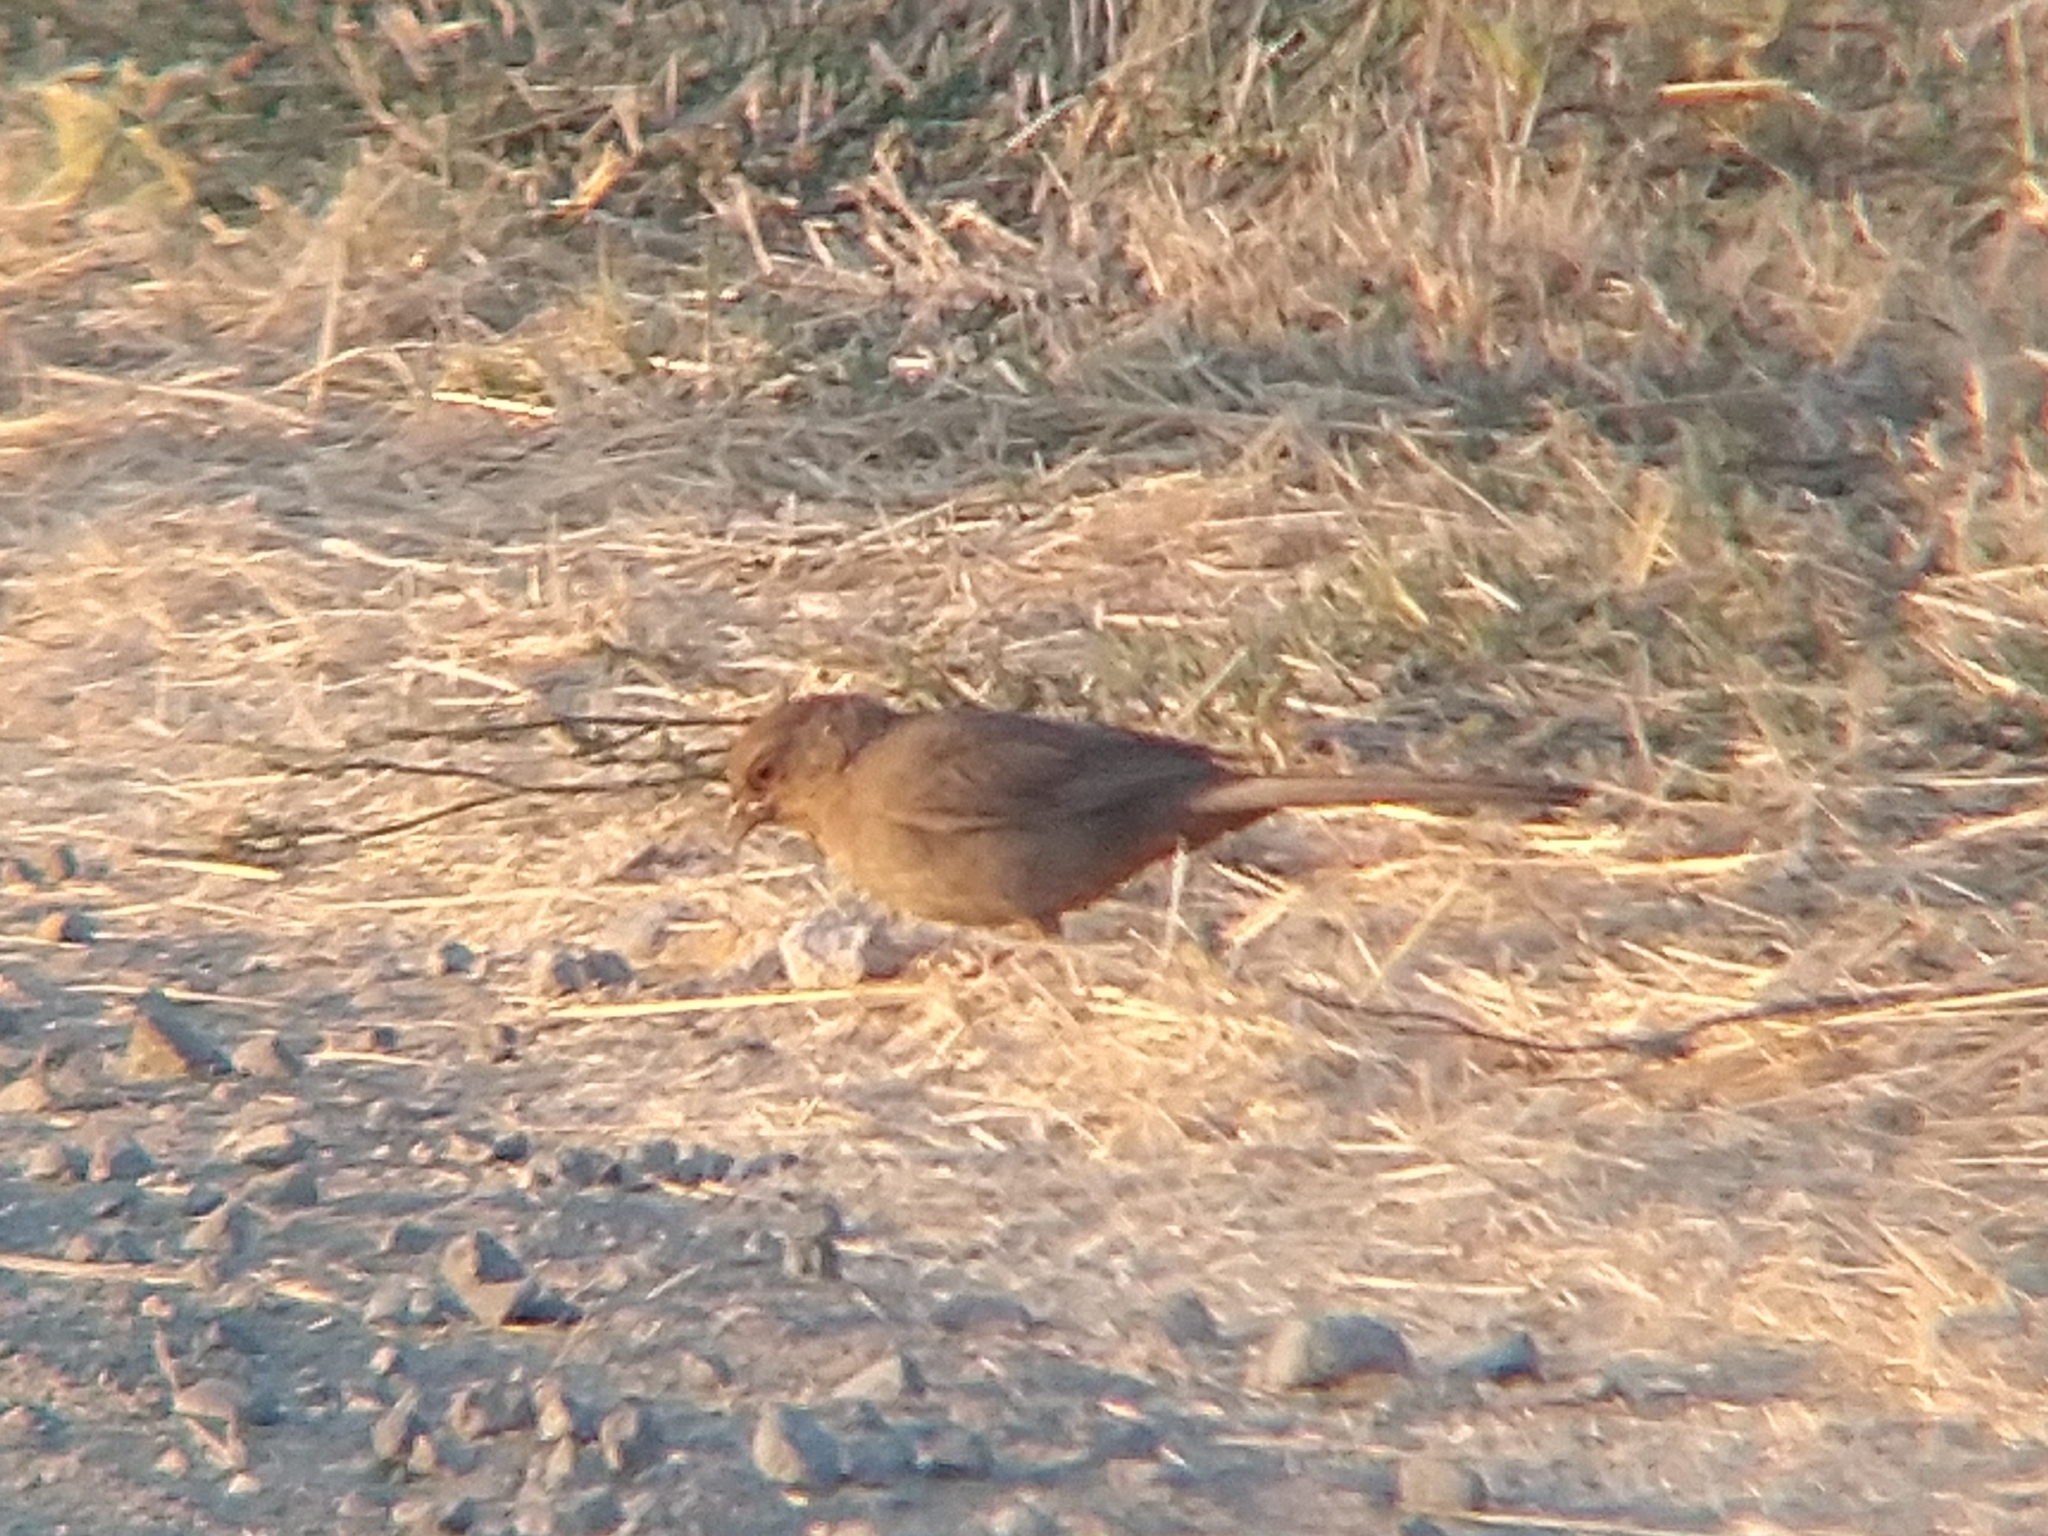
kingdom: Animalia
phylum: Chordata
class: Aves
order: Passeriformes
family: Passerellidae
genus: Melozone
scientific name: Melozone crissalis
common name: California towhee
